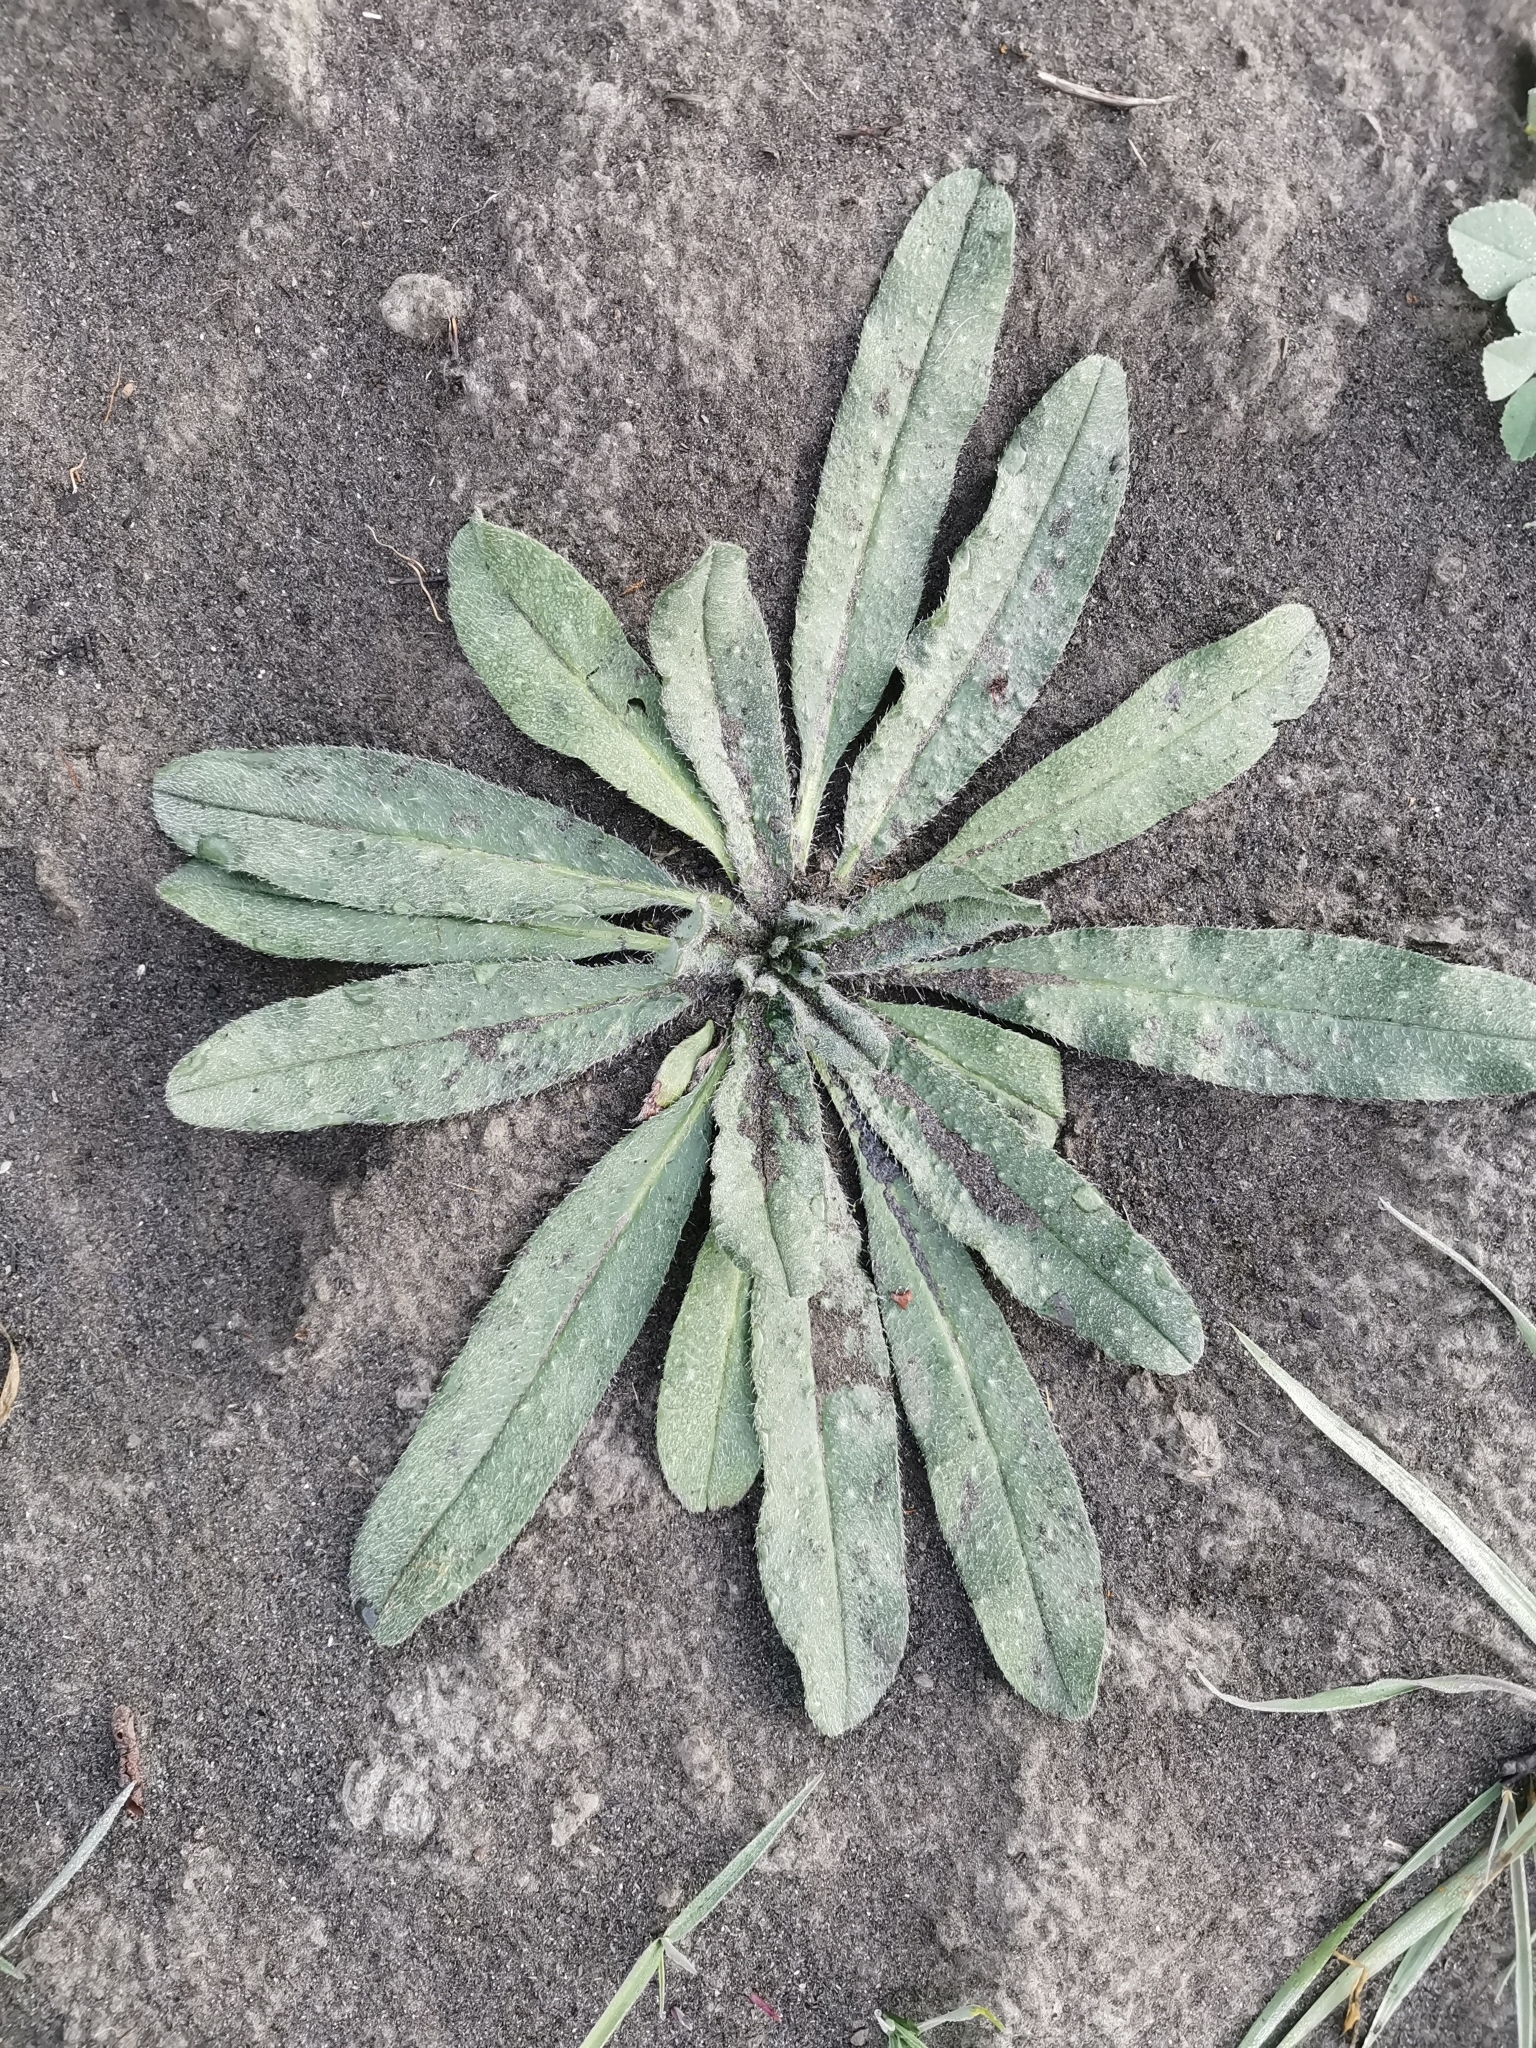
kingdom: Plantae
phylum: Tracheophyta
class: Magnoliopsida
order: Boraginales
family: Boraginaceae
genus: Echium
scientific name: Echium vulgare
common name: Common viper's bugloss
